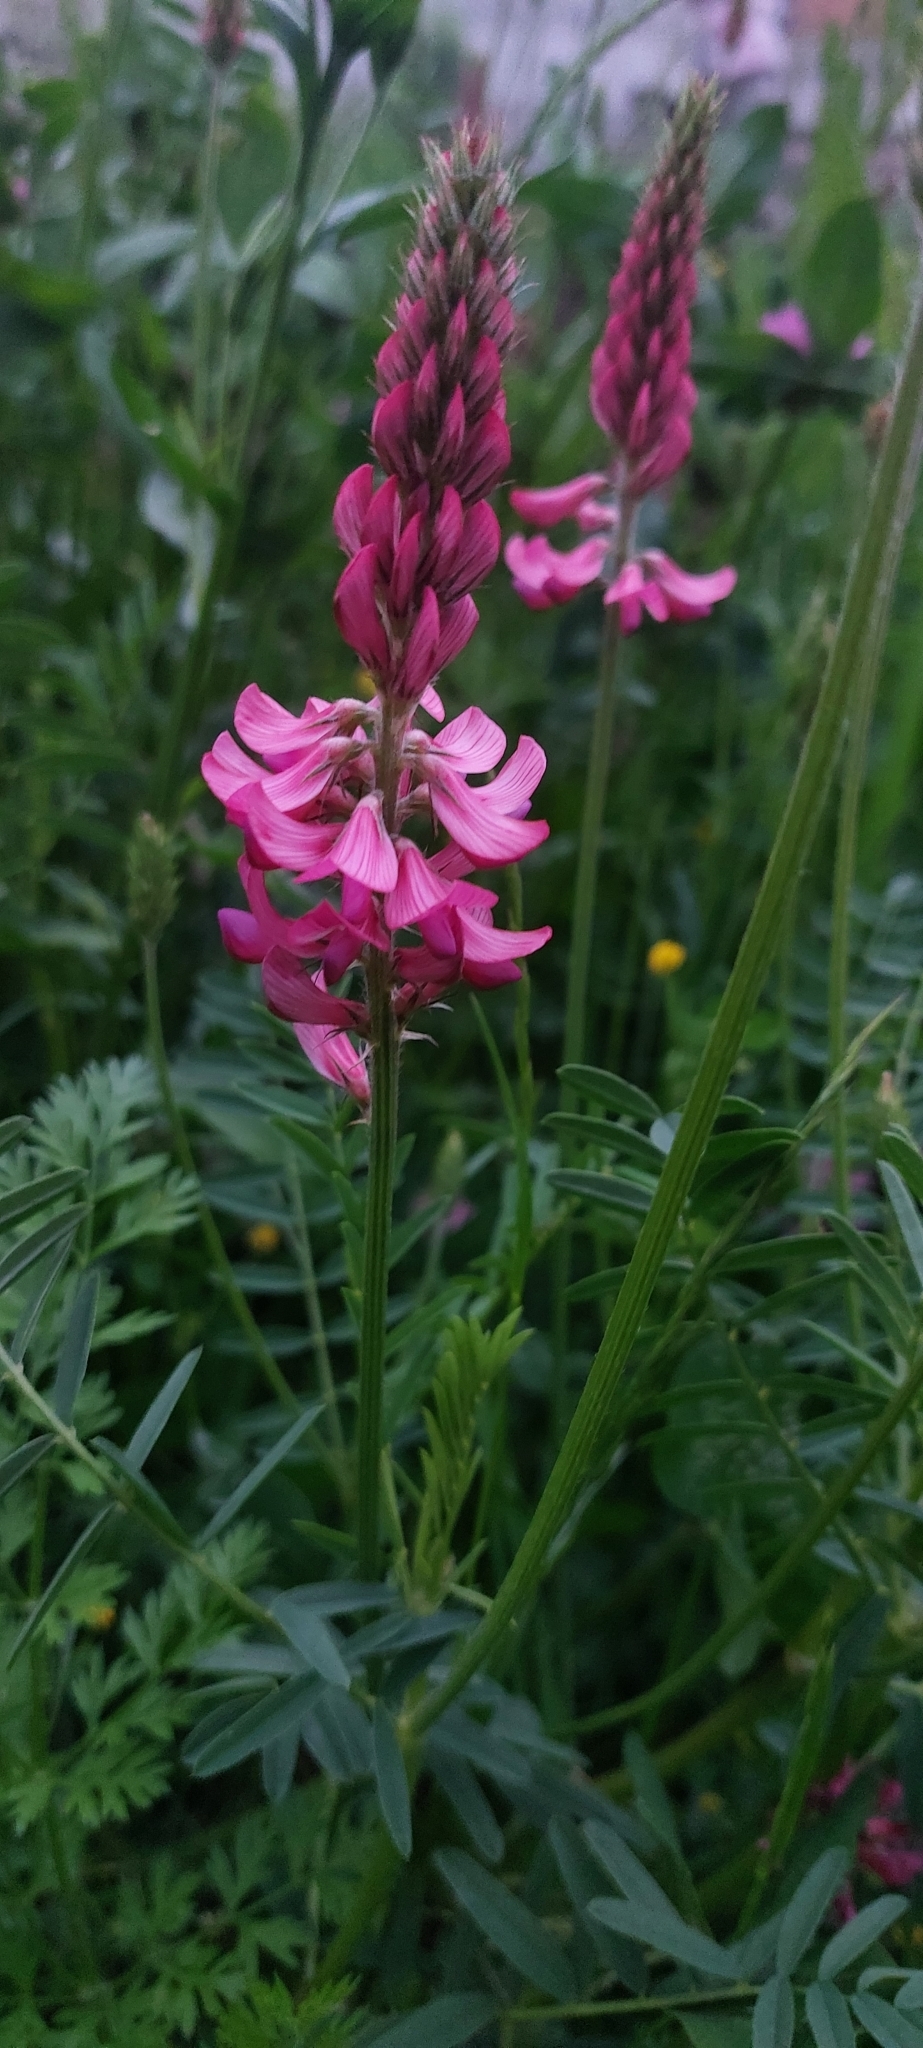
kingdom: Plantae
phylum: Tracheophyta
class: Magnoliopsida
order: Fabales
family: Fabaceae
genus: Onobrychis
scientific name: Onobrychis viciifolia
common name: Sainfoin
